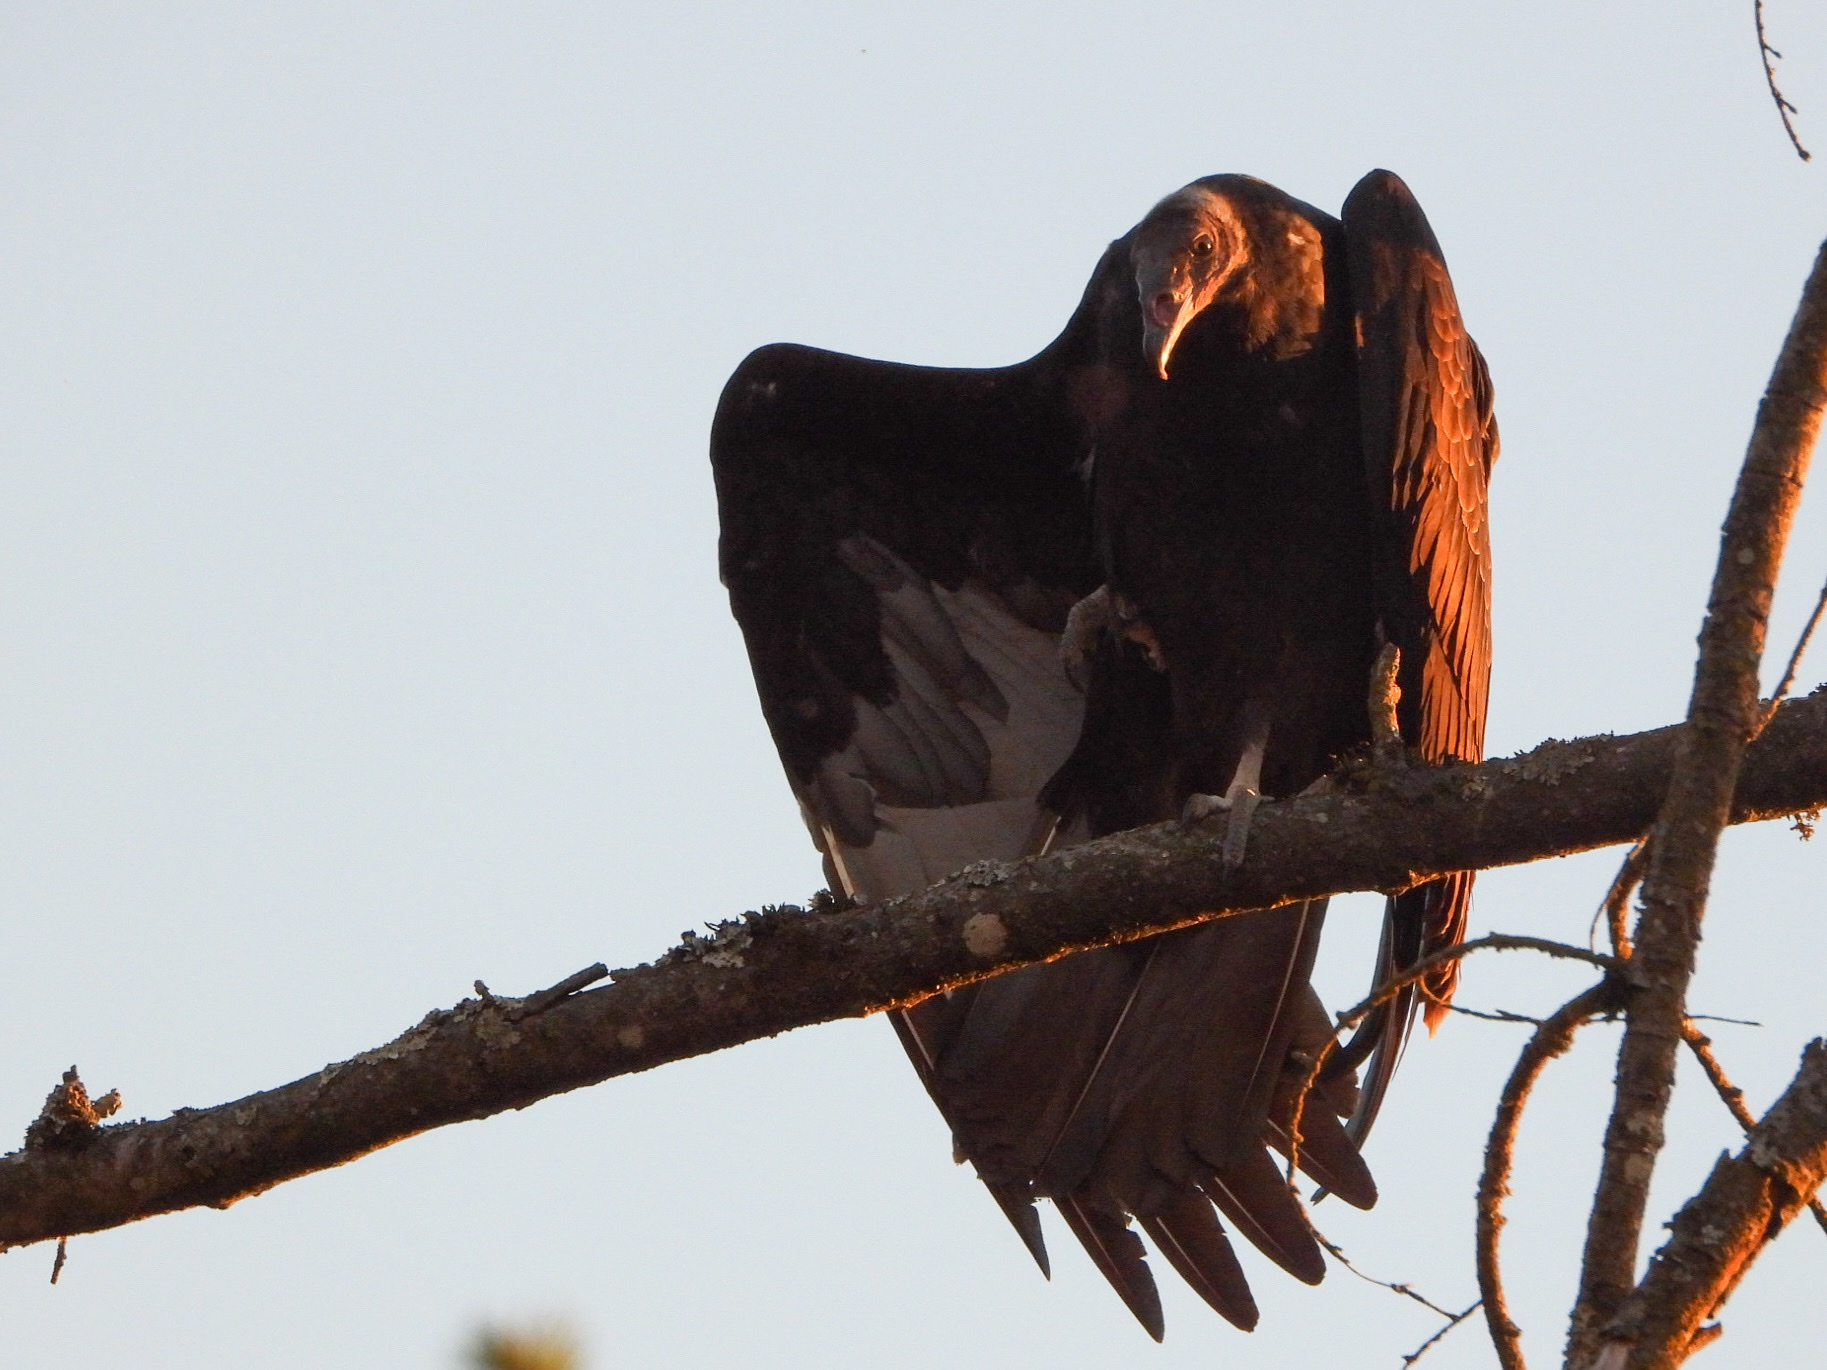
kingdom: Animalia
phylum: Chordata
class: Aves
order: Accipitriformes
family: Cathartidae
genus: Cathartes
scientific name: Cathartes aura
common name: Turkey vulture
